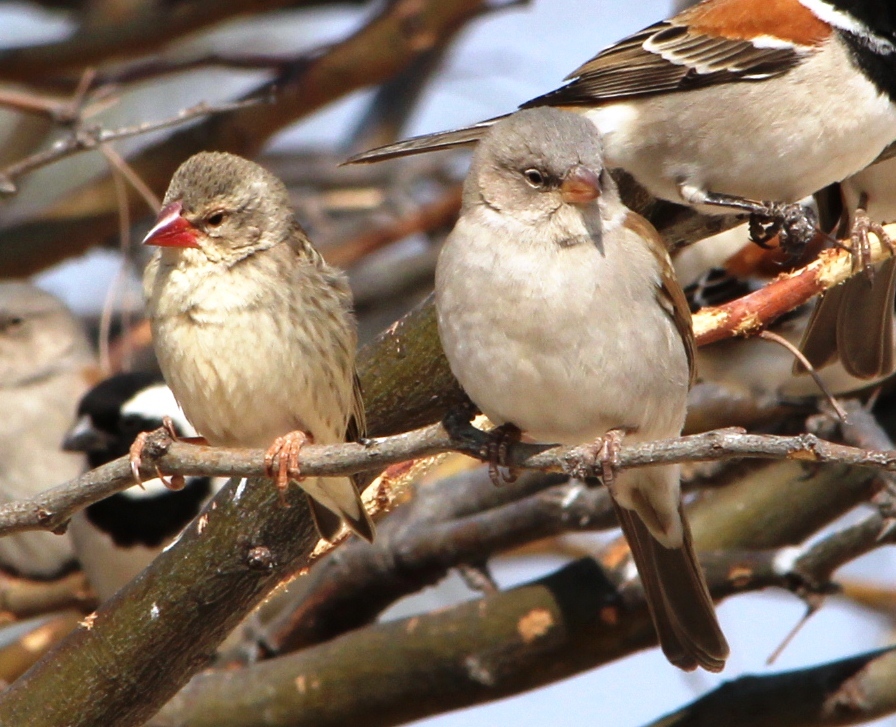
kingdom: Animalia
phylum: Chordata
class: Aves
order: Passeriformes
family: Ploceidae
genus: Quelea
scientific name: Quelea quelea
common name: Red-billed quelea
